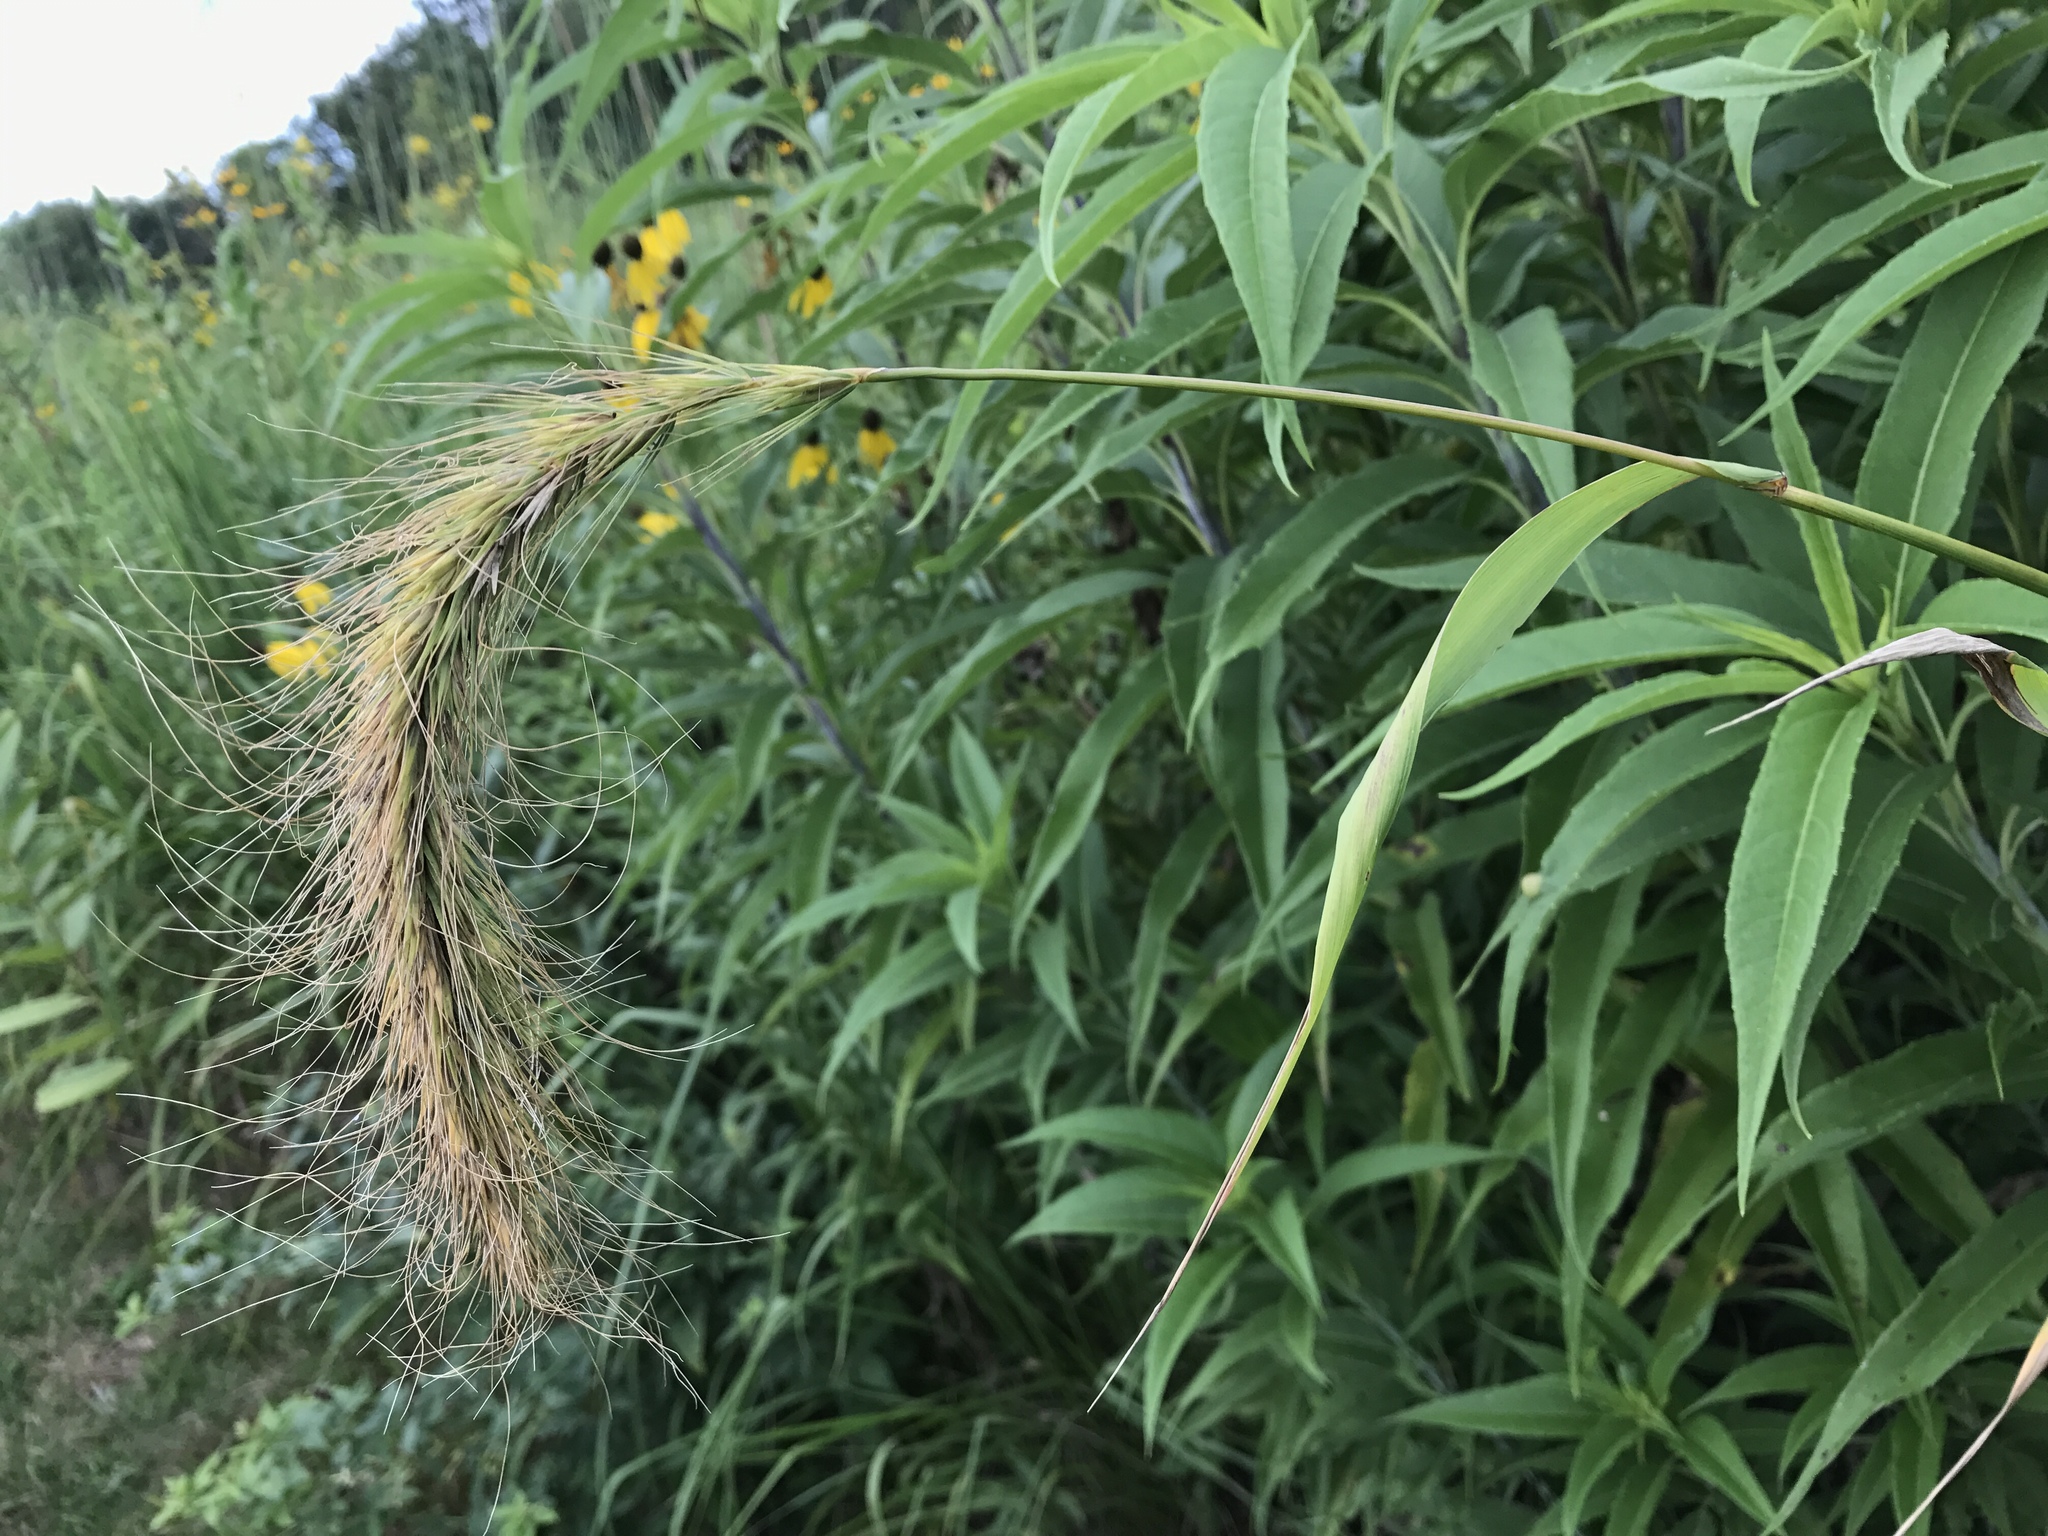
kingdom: Plantae
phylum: Tracheophyta
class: Liliopsida
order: Poales
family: Poaceae
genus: Elymus
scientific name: Elymus canadensis
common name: Canada wild rye
